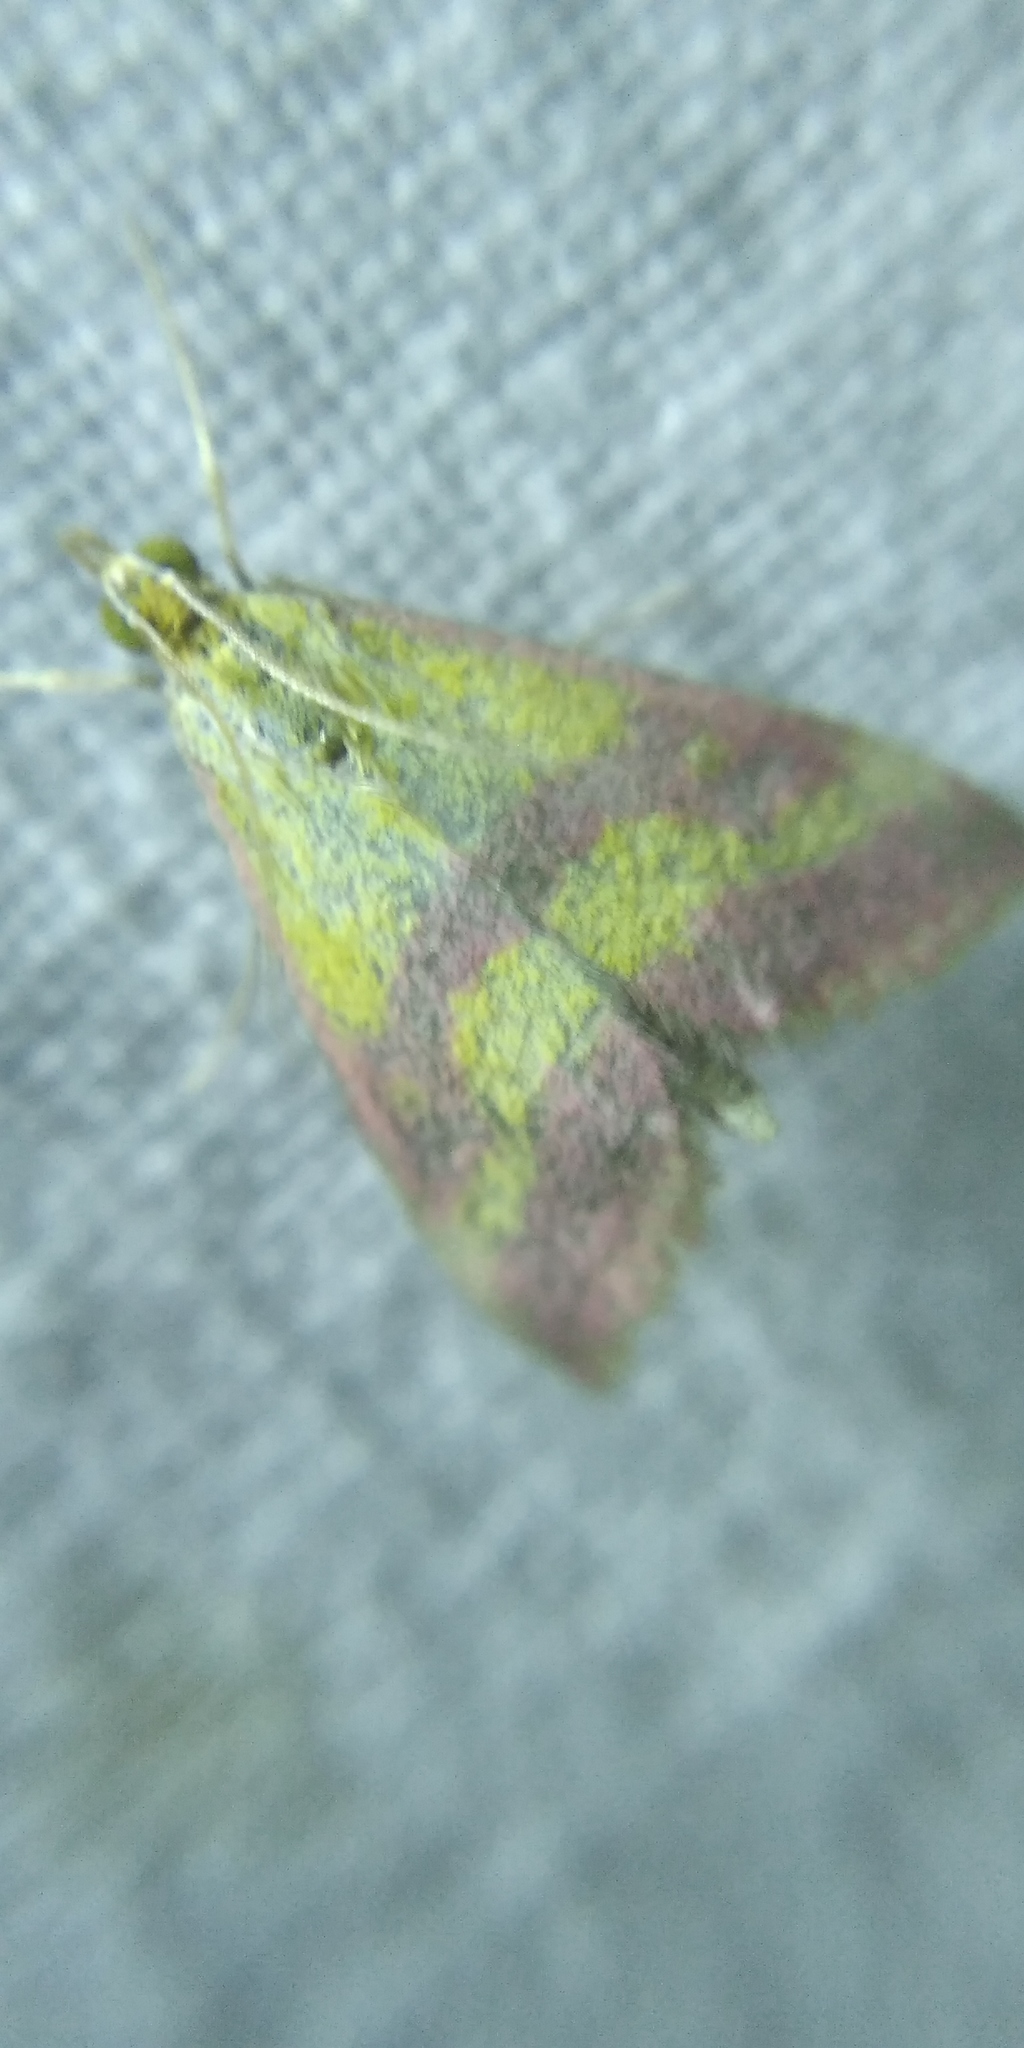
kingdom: Animalia
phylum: Arthropoda
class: Insecta
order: Lepidoptera
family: Crambidae
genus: Pyrausta
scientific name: Pyrausta sanguinalis
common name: Scarce crimson and gold
